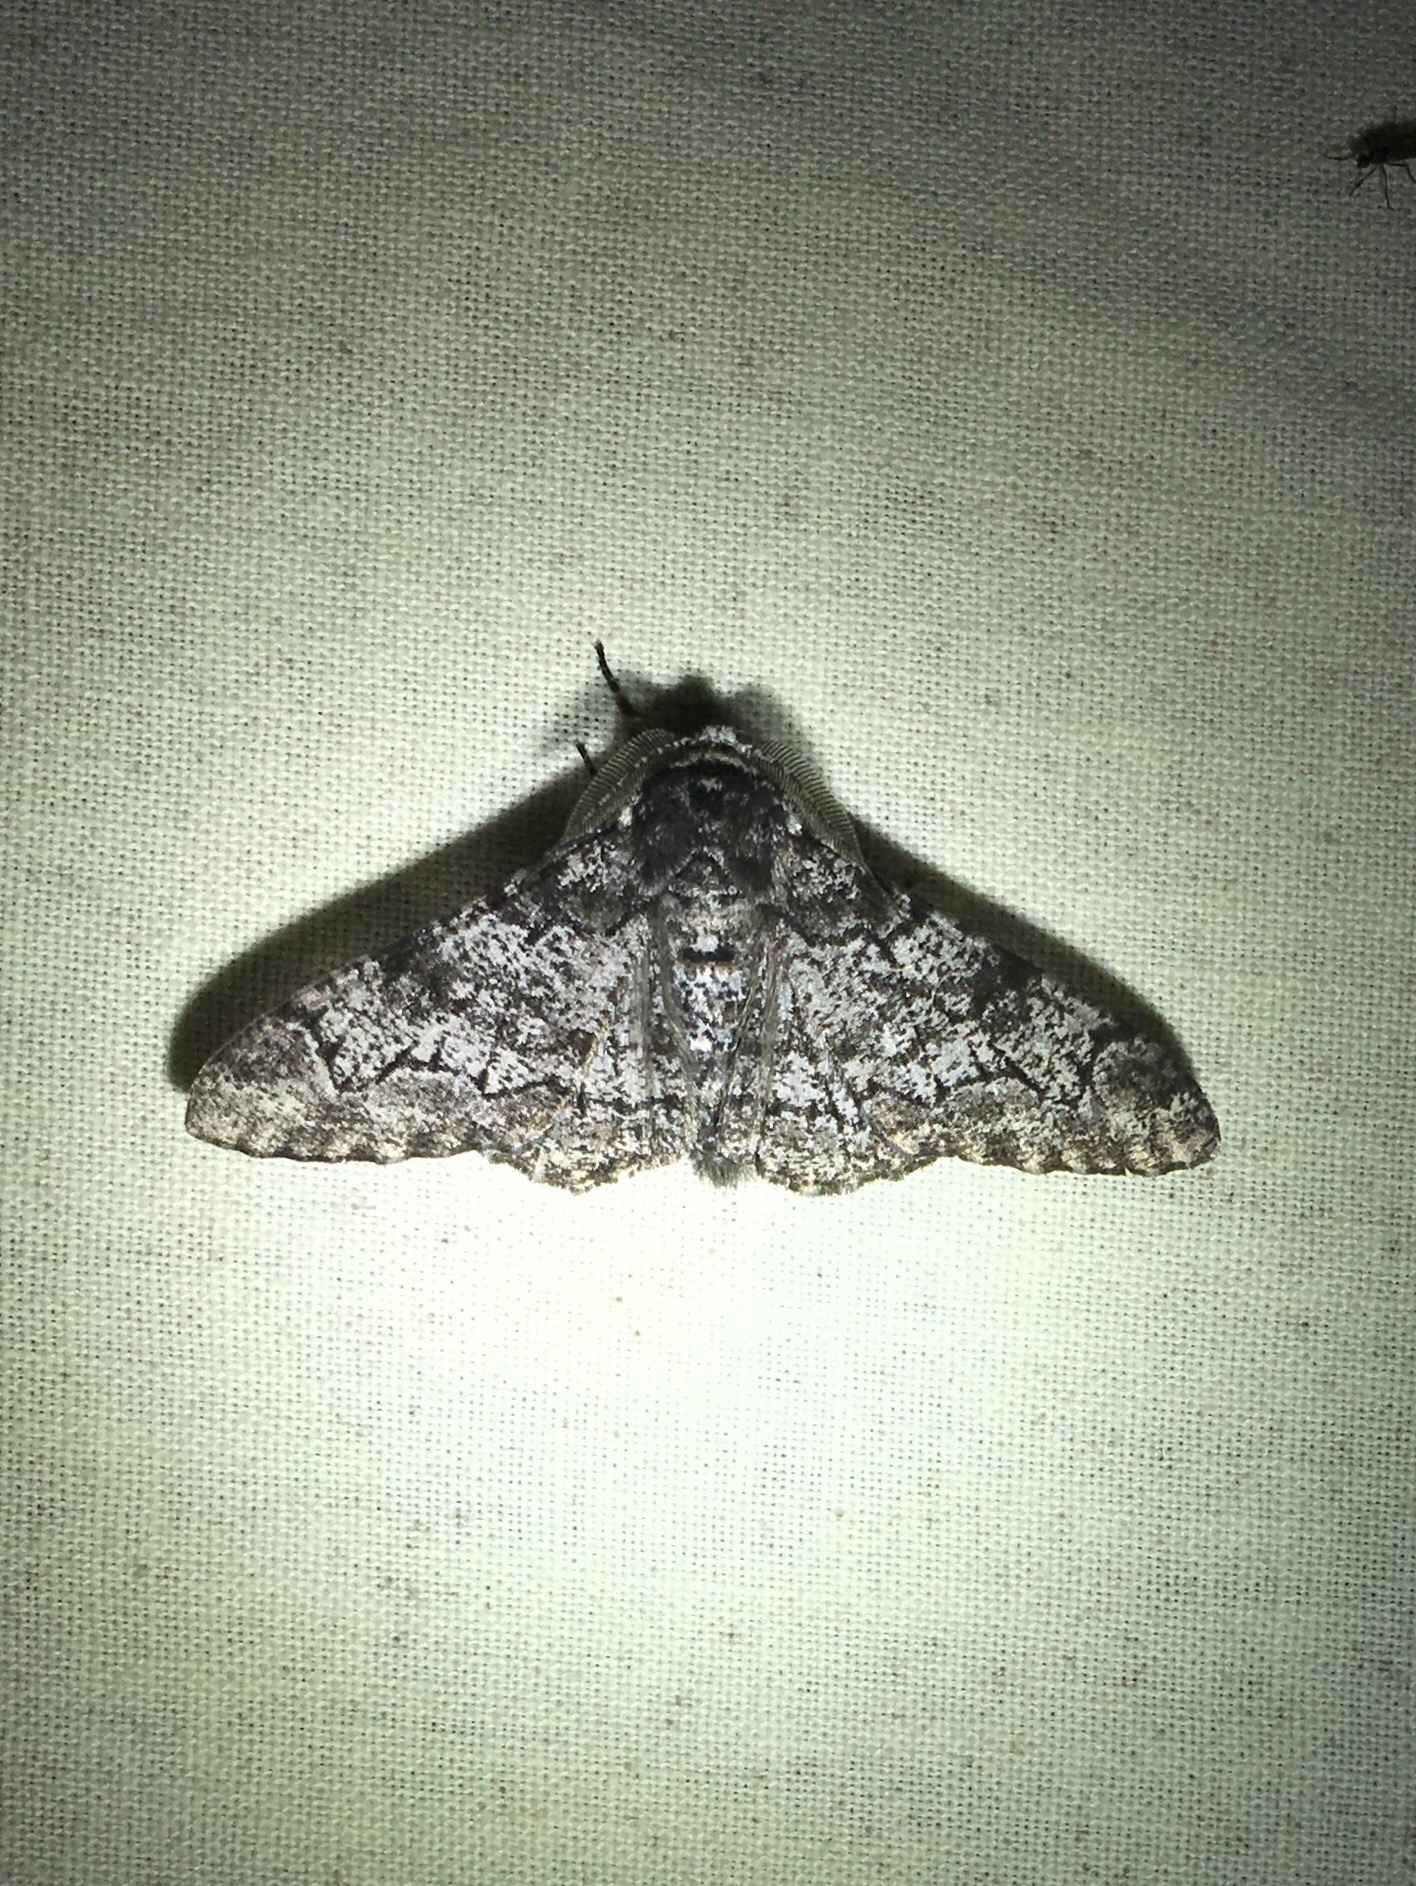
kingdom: Animalia
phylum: Arthropoda
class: Insecta
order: Lepidoptera
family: Geometridae
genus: Biston
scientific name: Biston betularia
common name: Peppered moth
